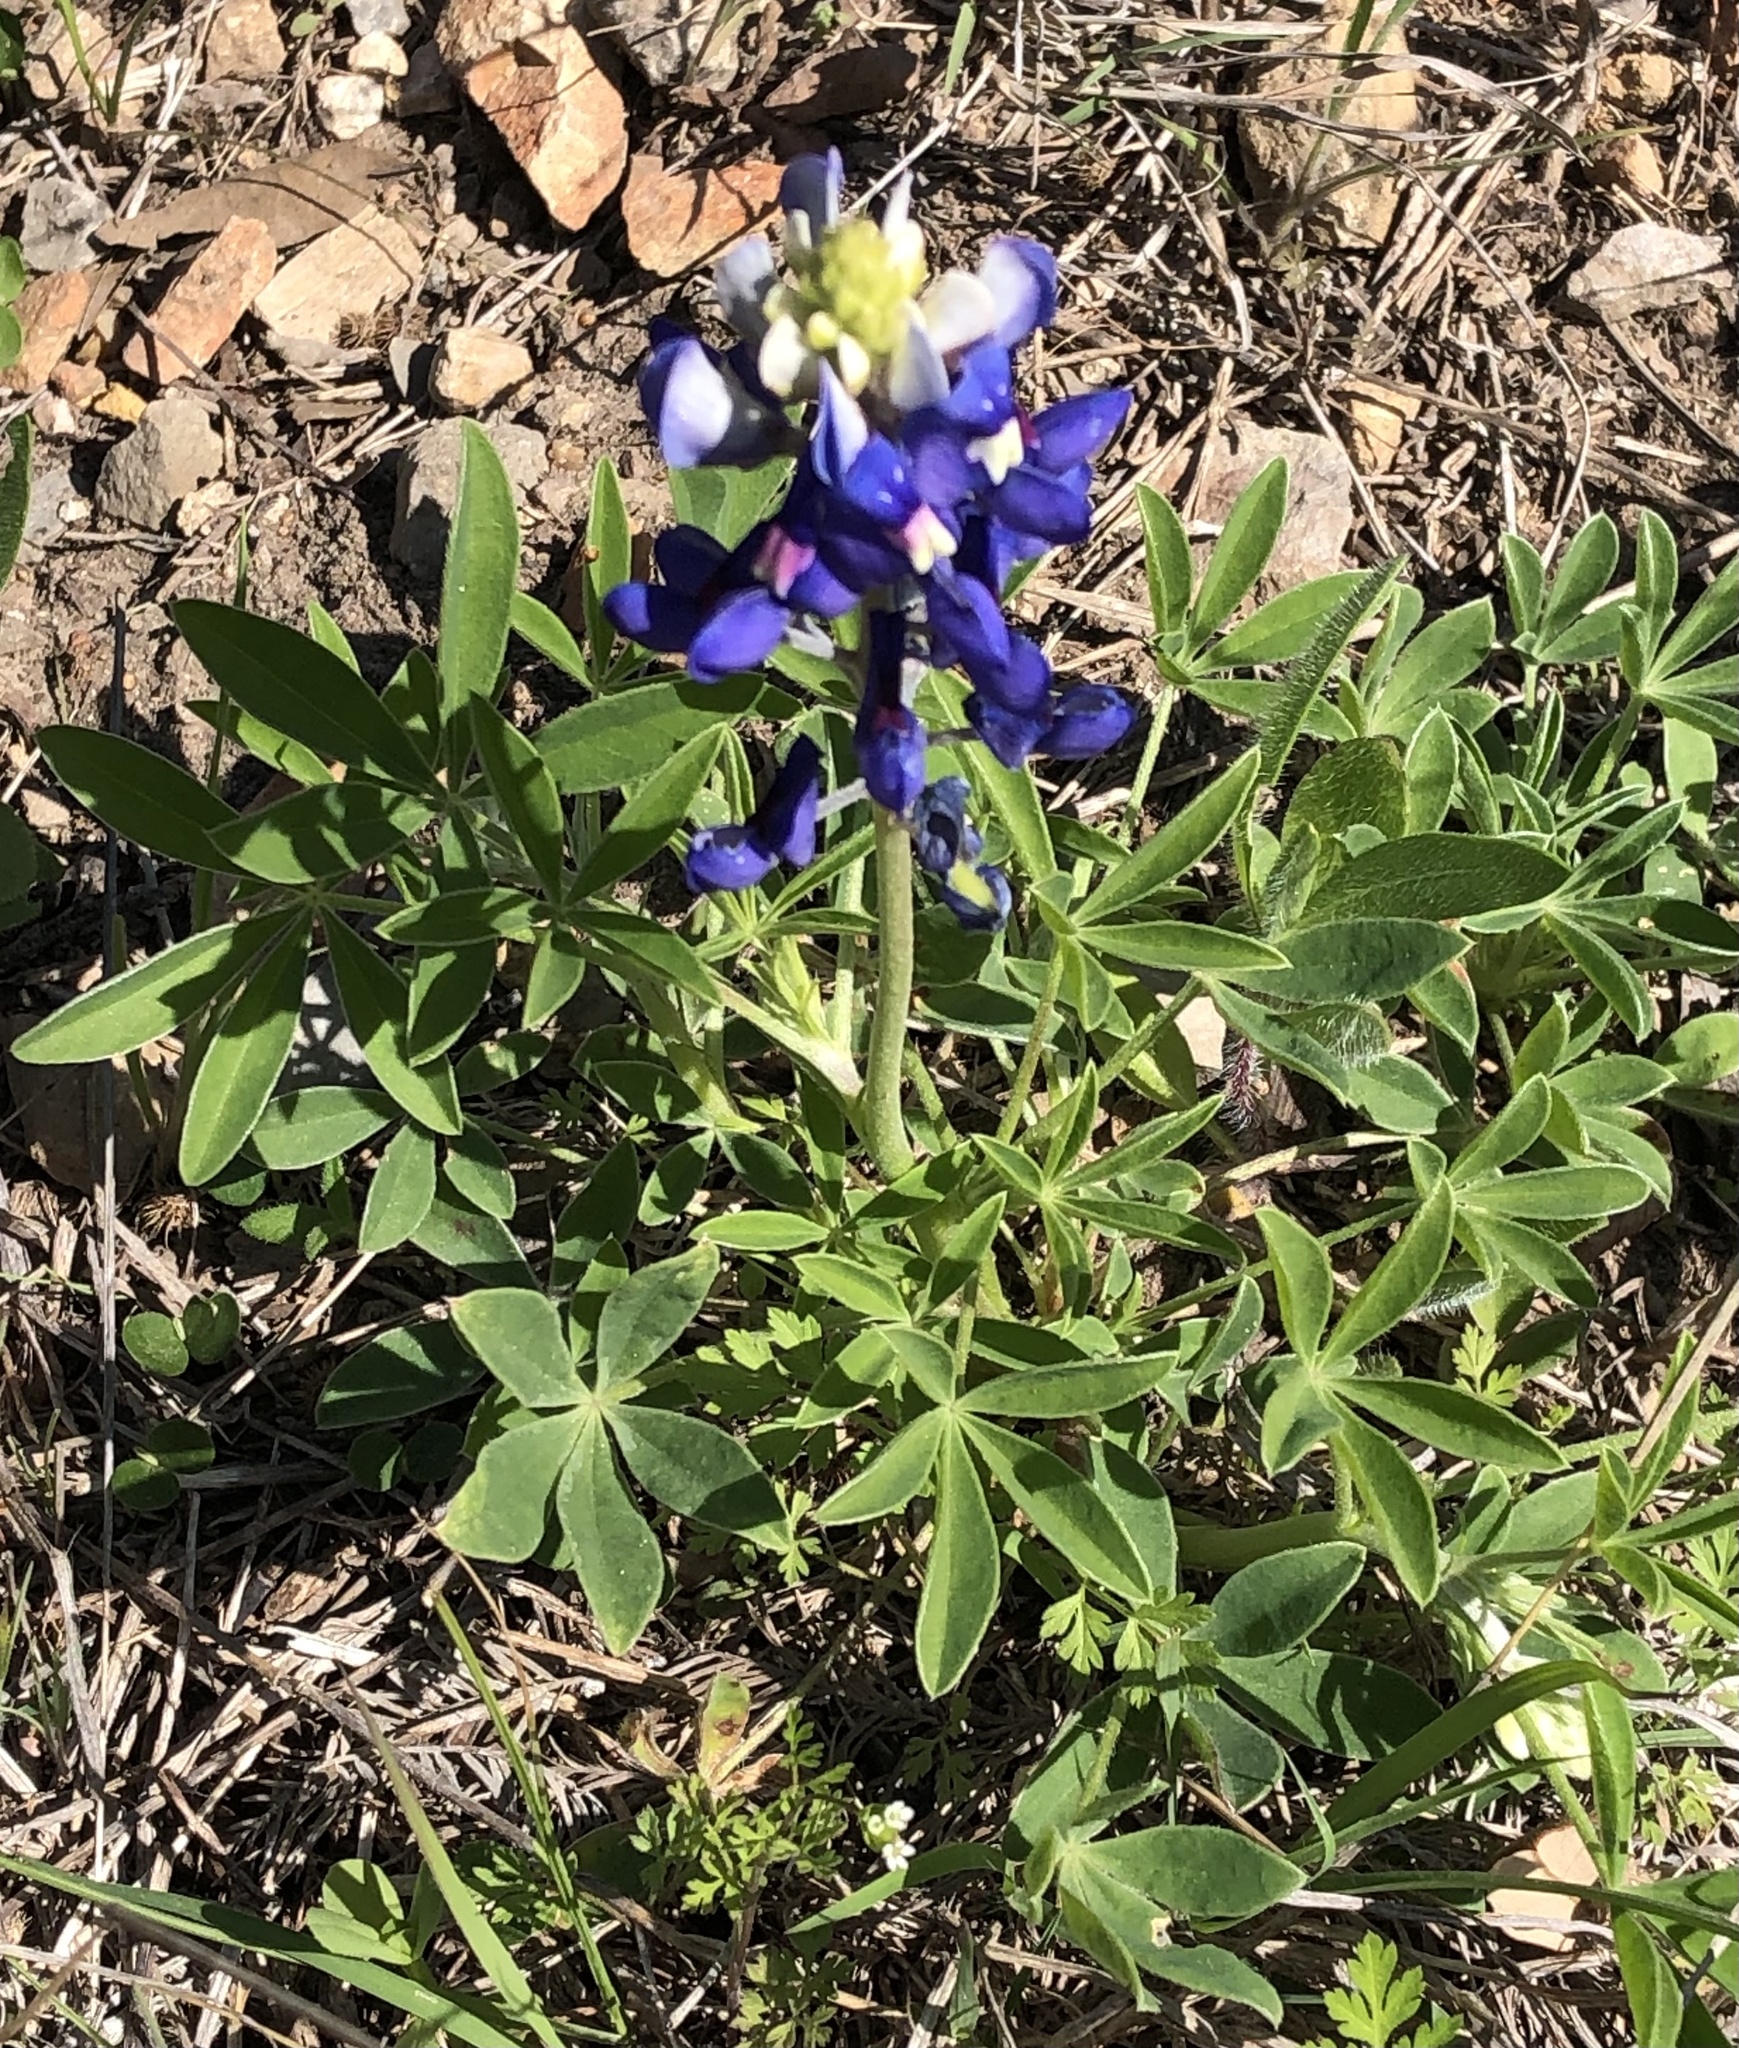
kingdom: Plantae
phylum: Tracheophyta
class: Magnoliopsida
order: Fabales
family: Fabaceae
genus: Lupinus
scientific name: Lupinus texensis
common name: Texas bluebonnet
